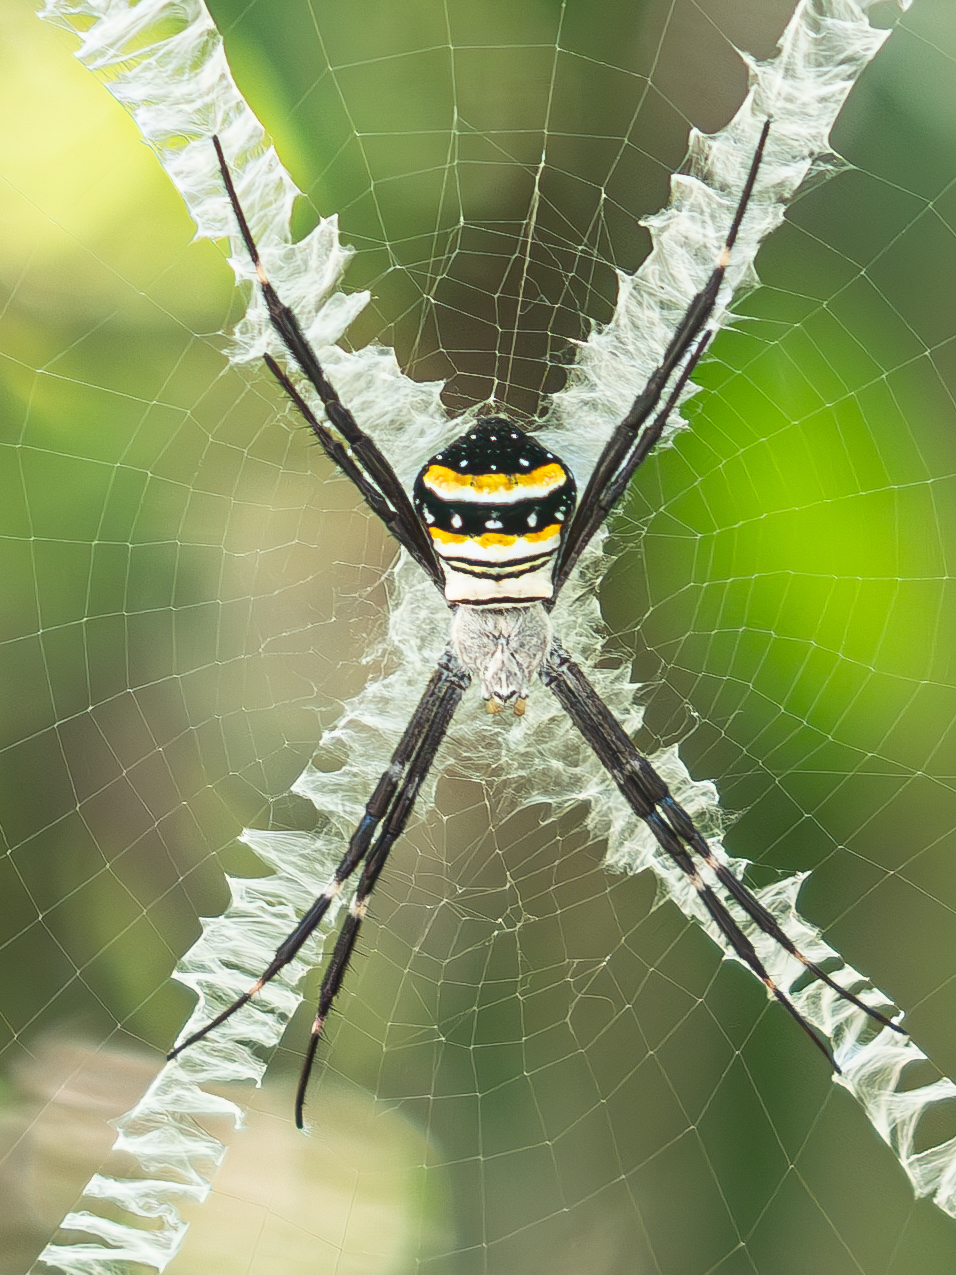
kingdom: Animalia
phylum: Arthropoda
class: Arachnida
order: Araneae
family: Araneidae
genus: Argiope
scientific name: Argiope caledonia
